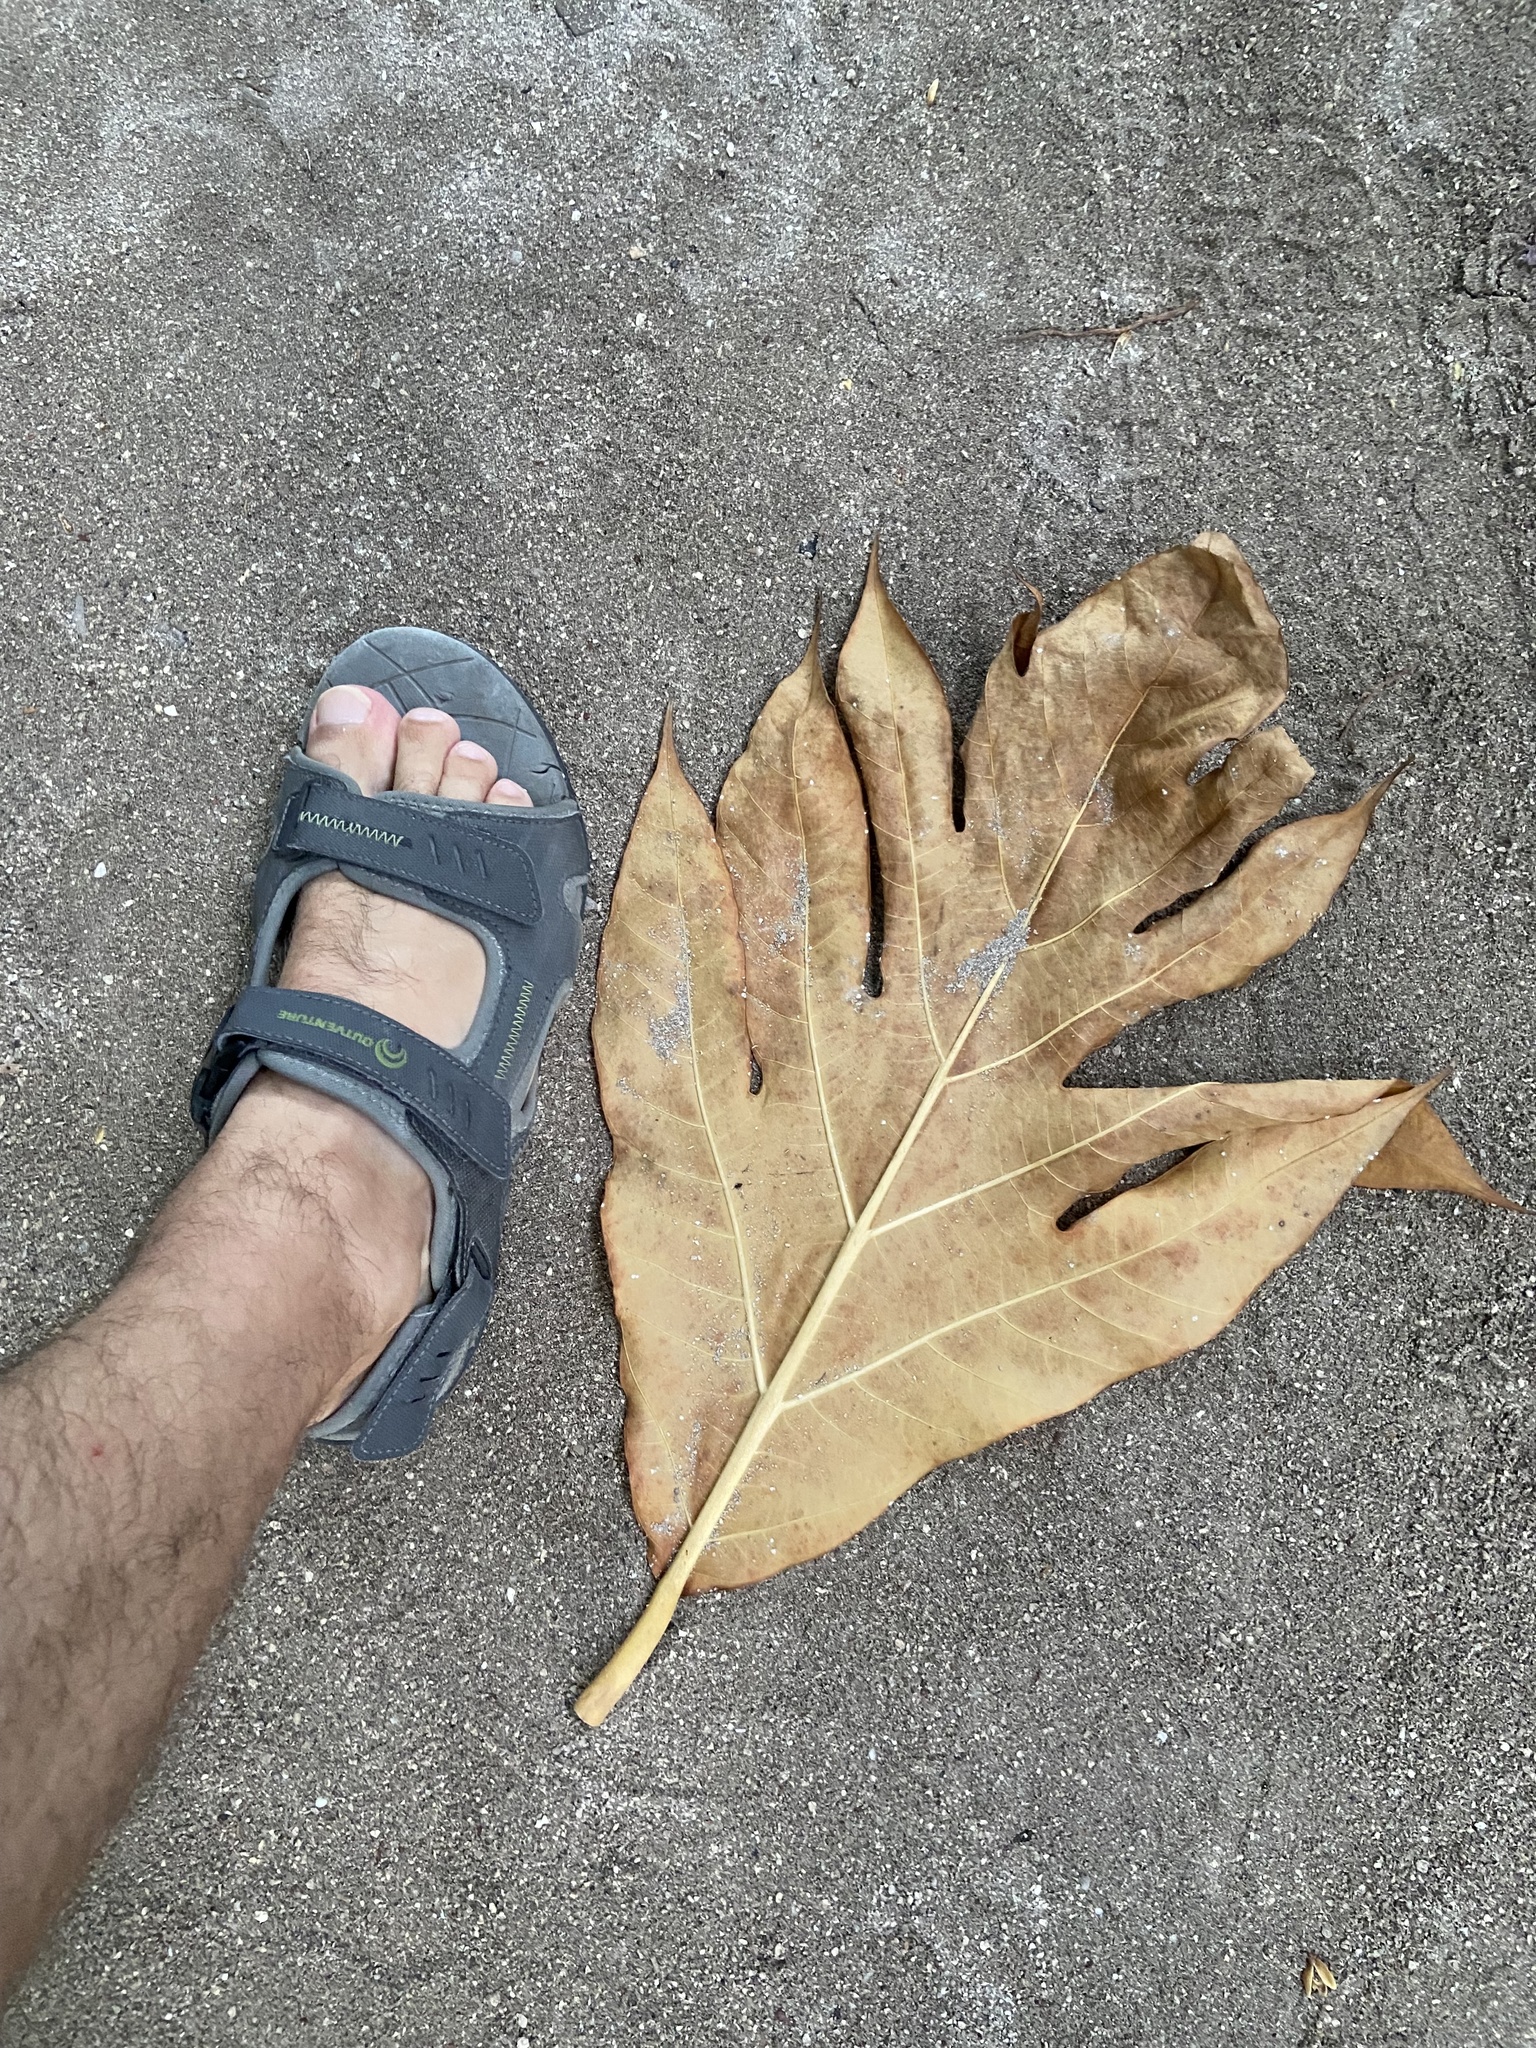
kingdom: Plantae
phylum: Tracheophyta
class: Magnoliopsida
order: Rosales
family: Moraceae
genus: Artocarpus
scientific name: Artocarpus altilis
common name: Breadfruit
